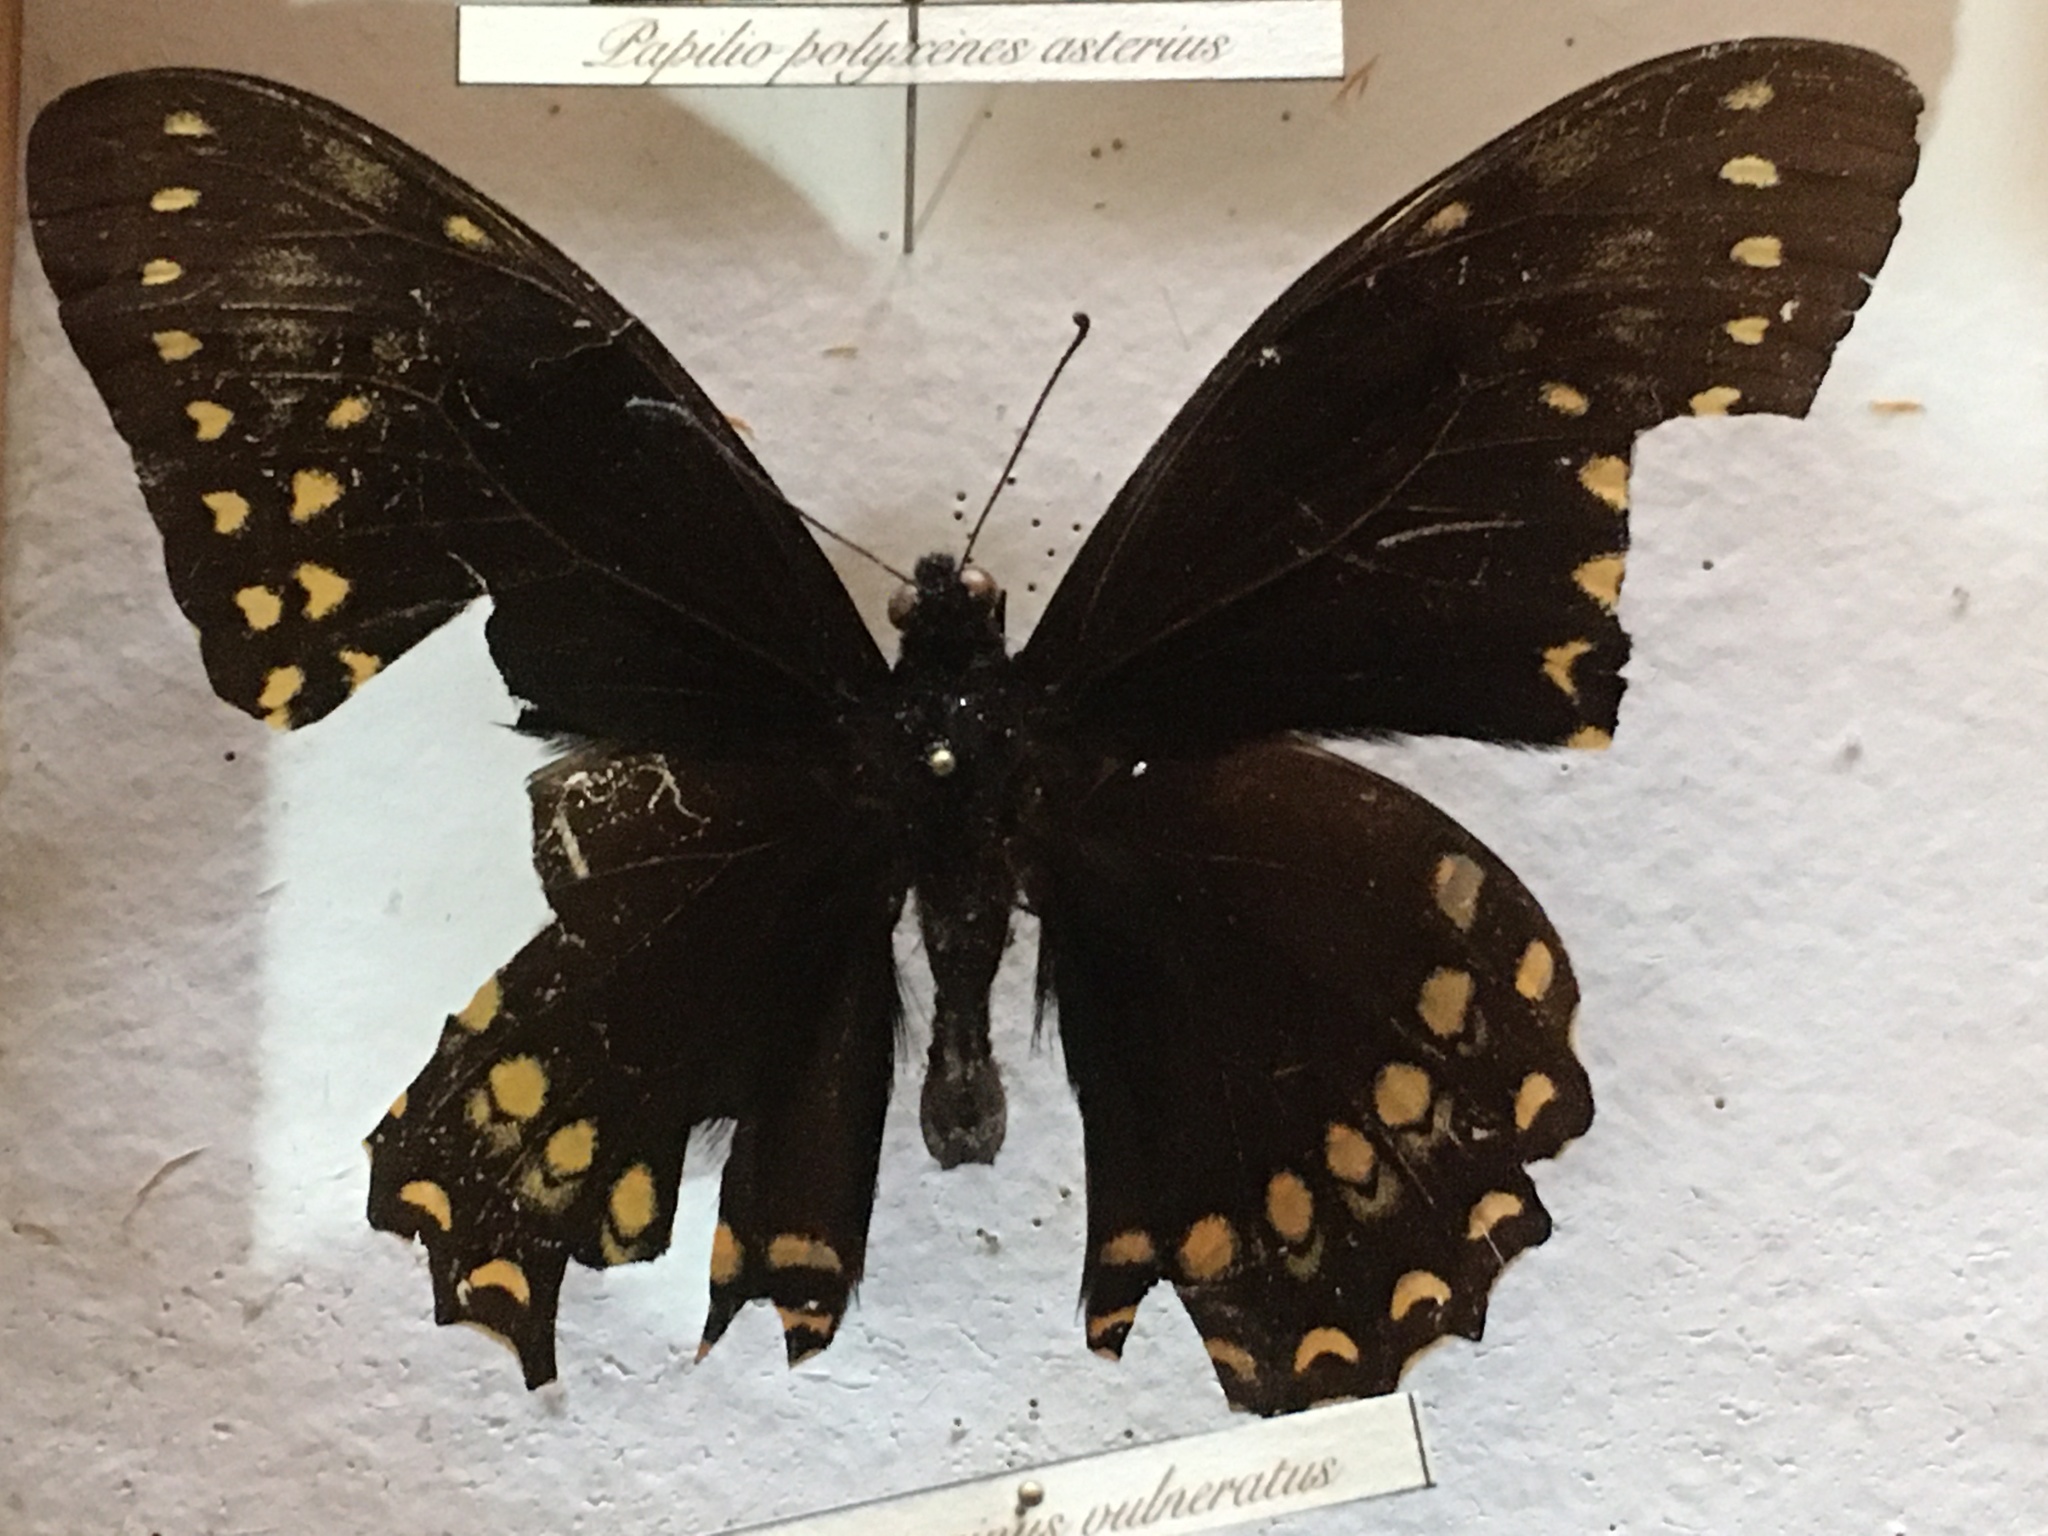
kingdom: Animalia
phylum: Arthropoda
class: Insecta
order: Lepidoptera
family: Papilionidae
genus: Papilio
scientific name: Papilio menatius
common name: Victorine swallowtail
